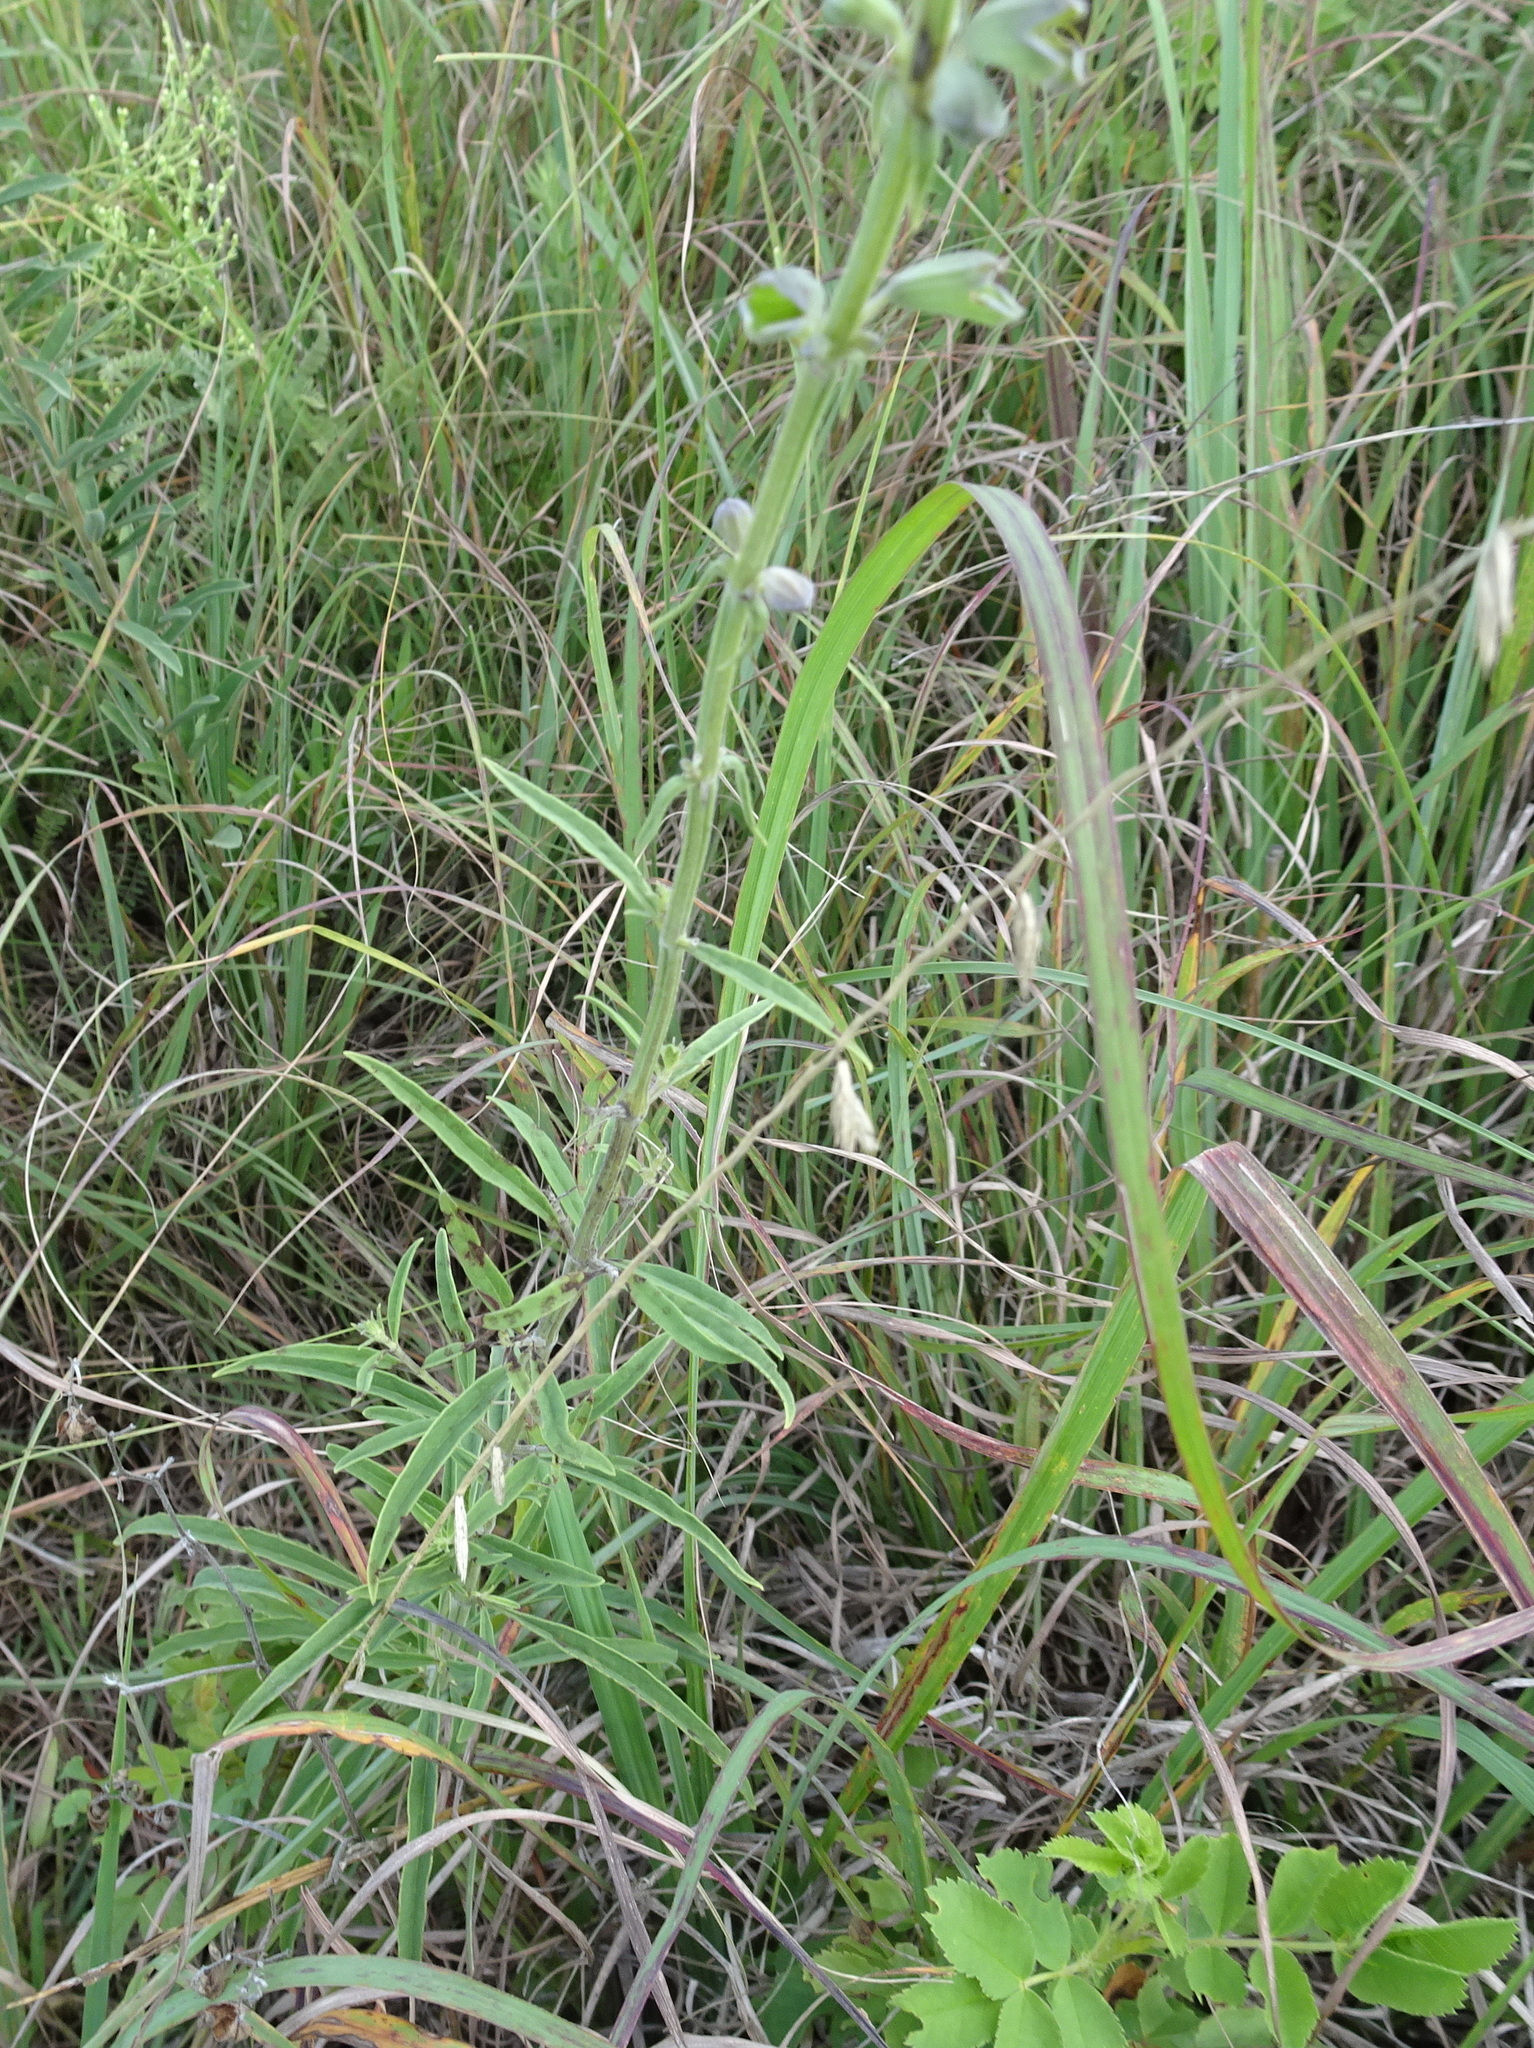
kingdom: Plantae
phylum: Tracheophyta
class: Magnoliopsida
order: Lamiales
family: Lamiaceae
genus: Salvia
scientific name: Salvia azurea
